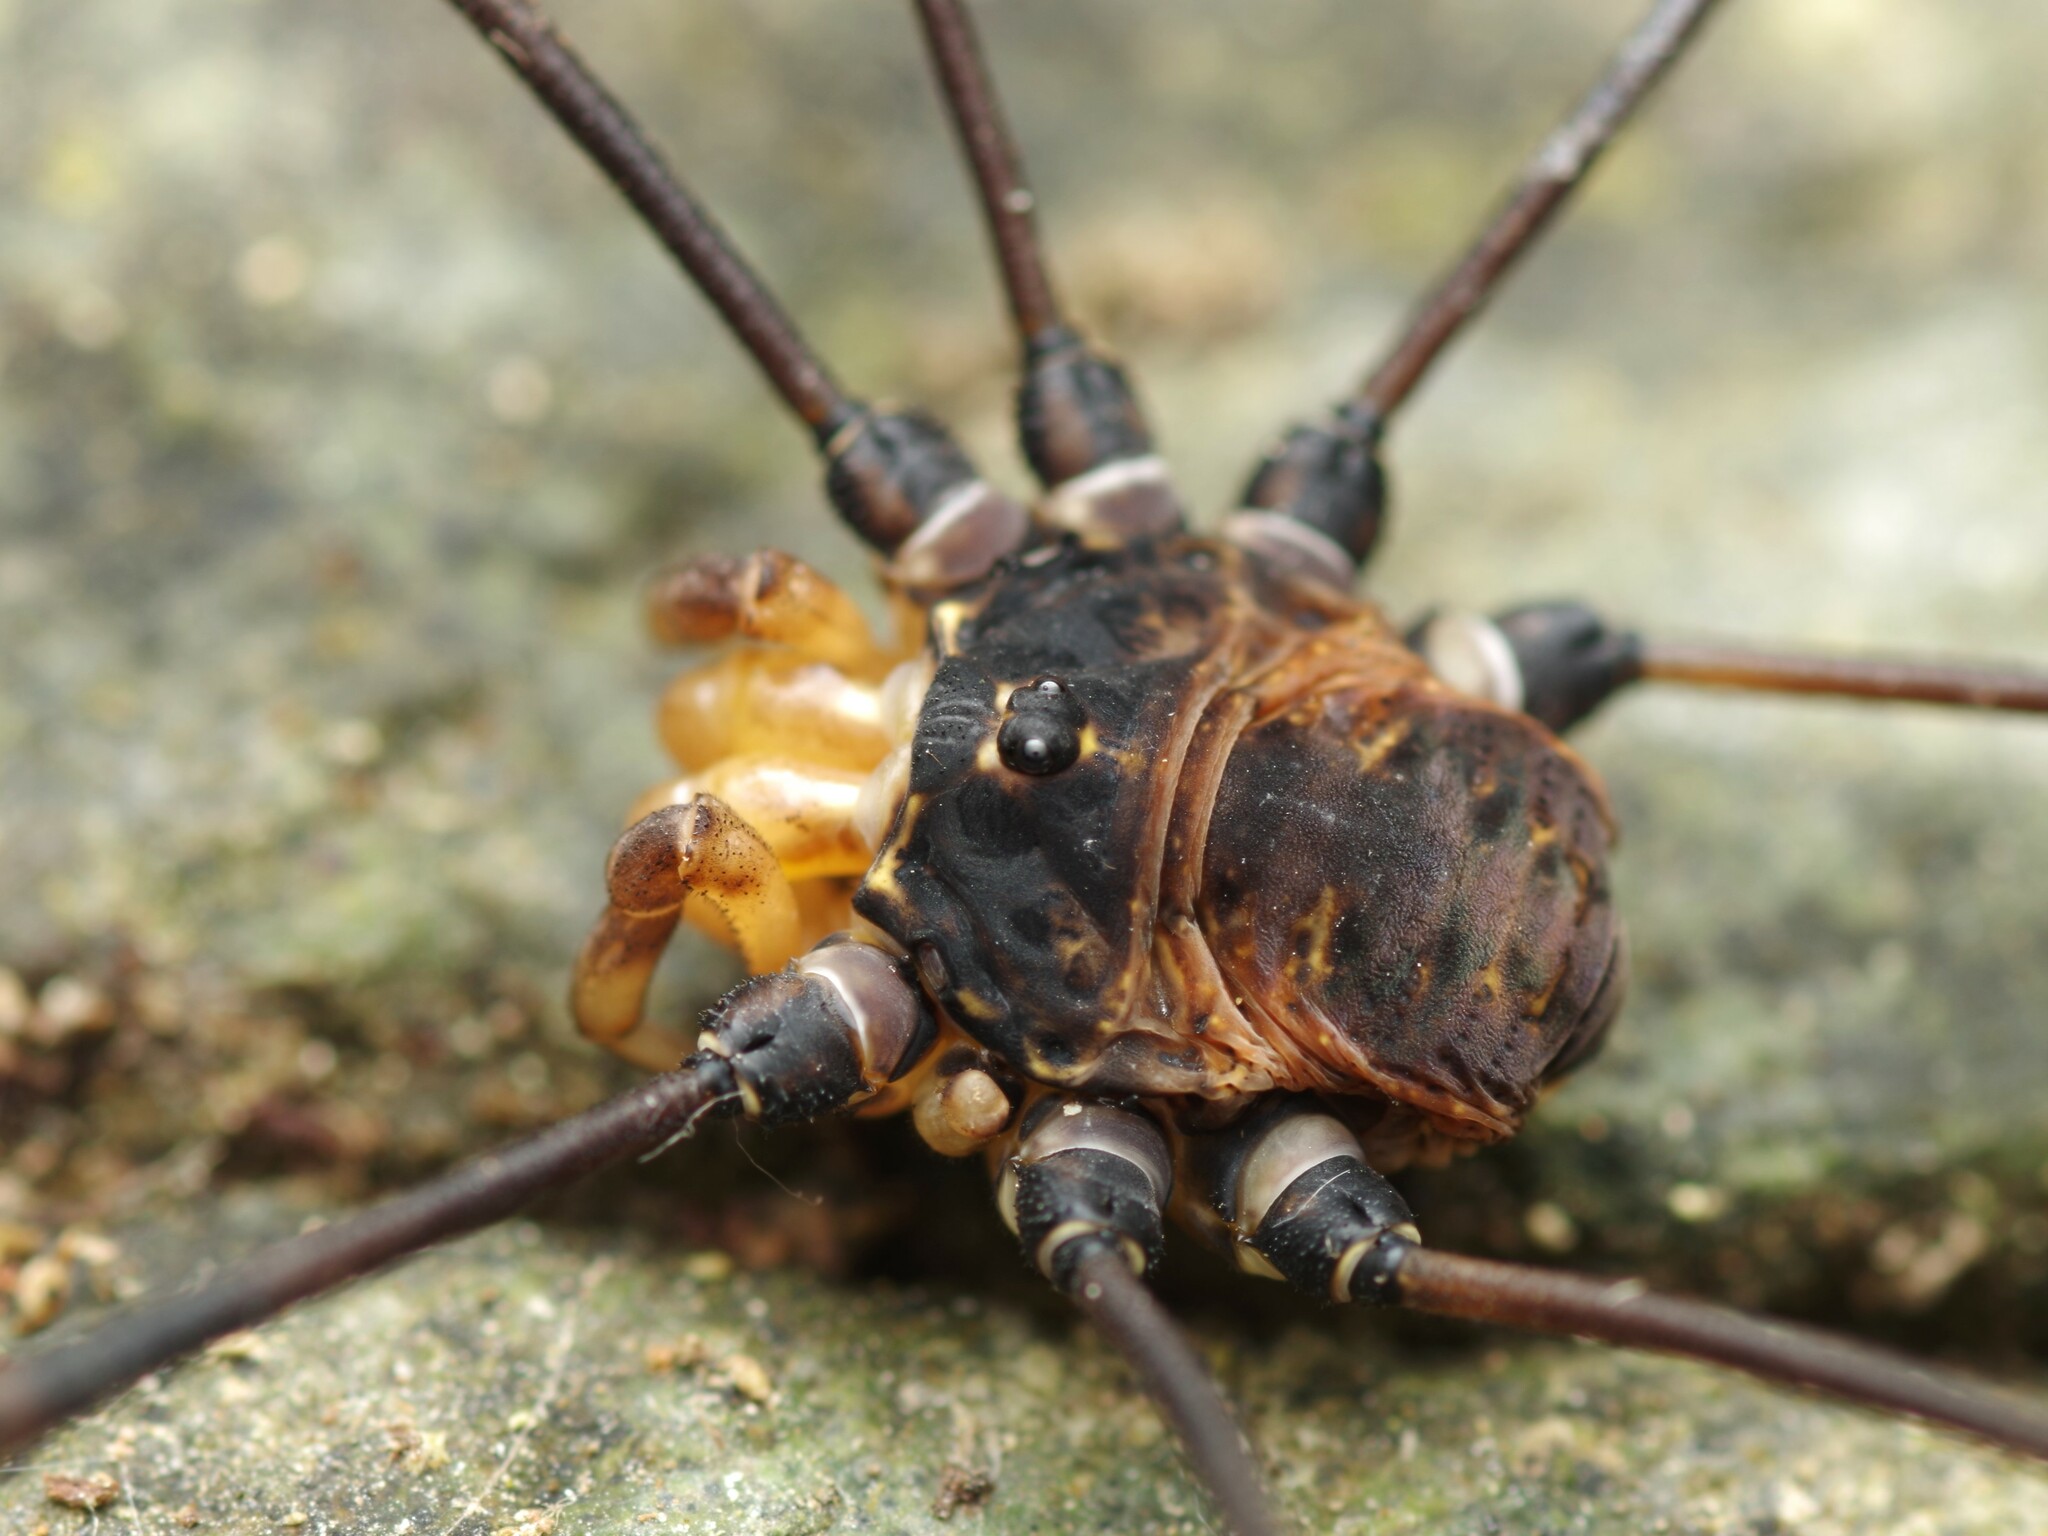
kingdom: Animalia
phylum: Arthropoda
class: Arachnida
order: Opiliones
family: Sclerosomatidae
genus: Gyas
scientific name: Gyas titanus
